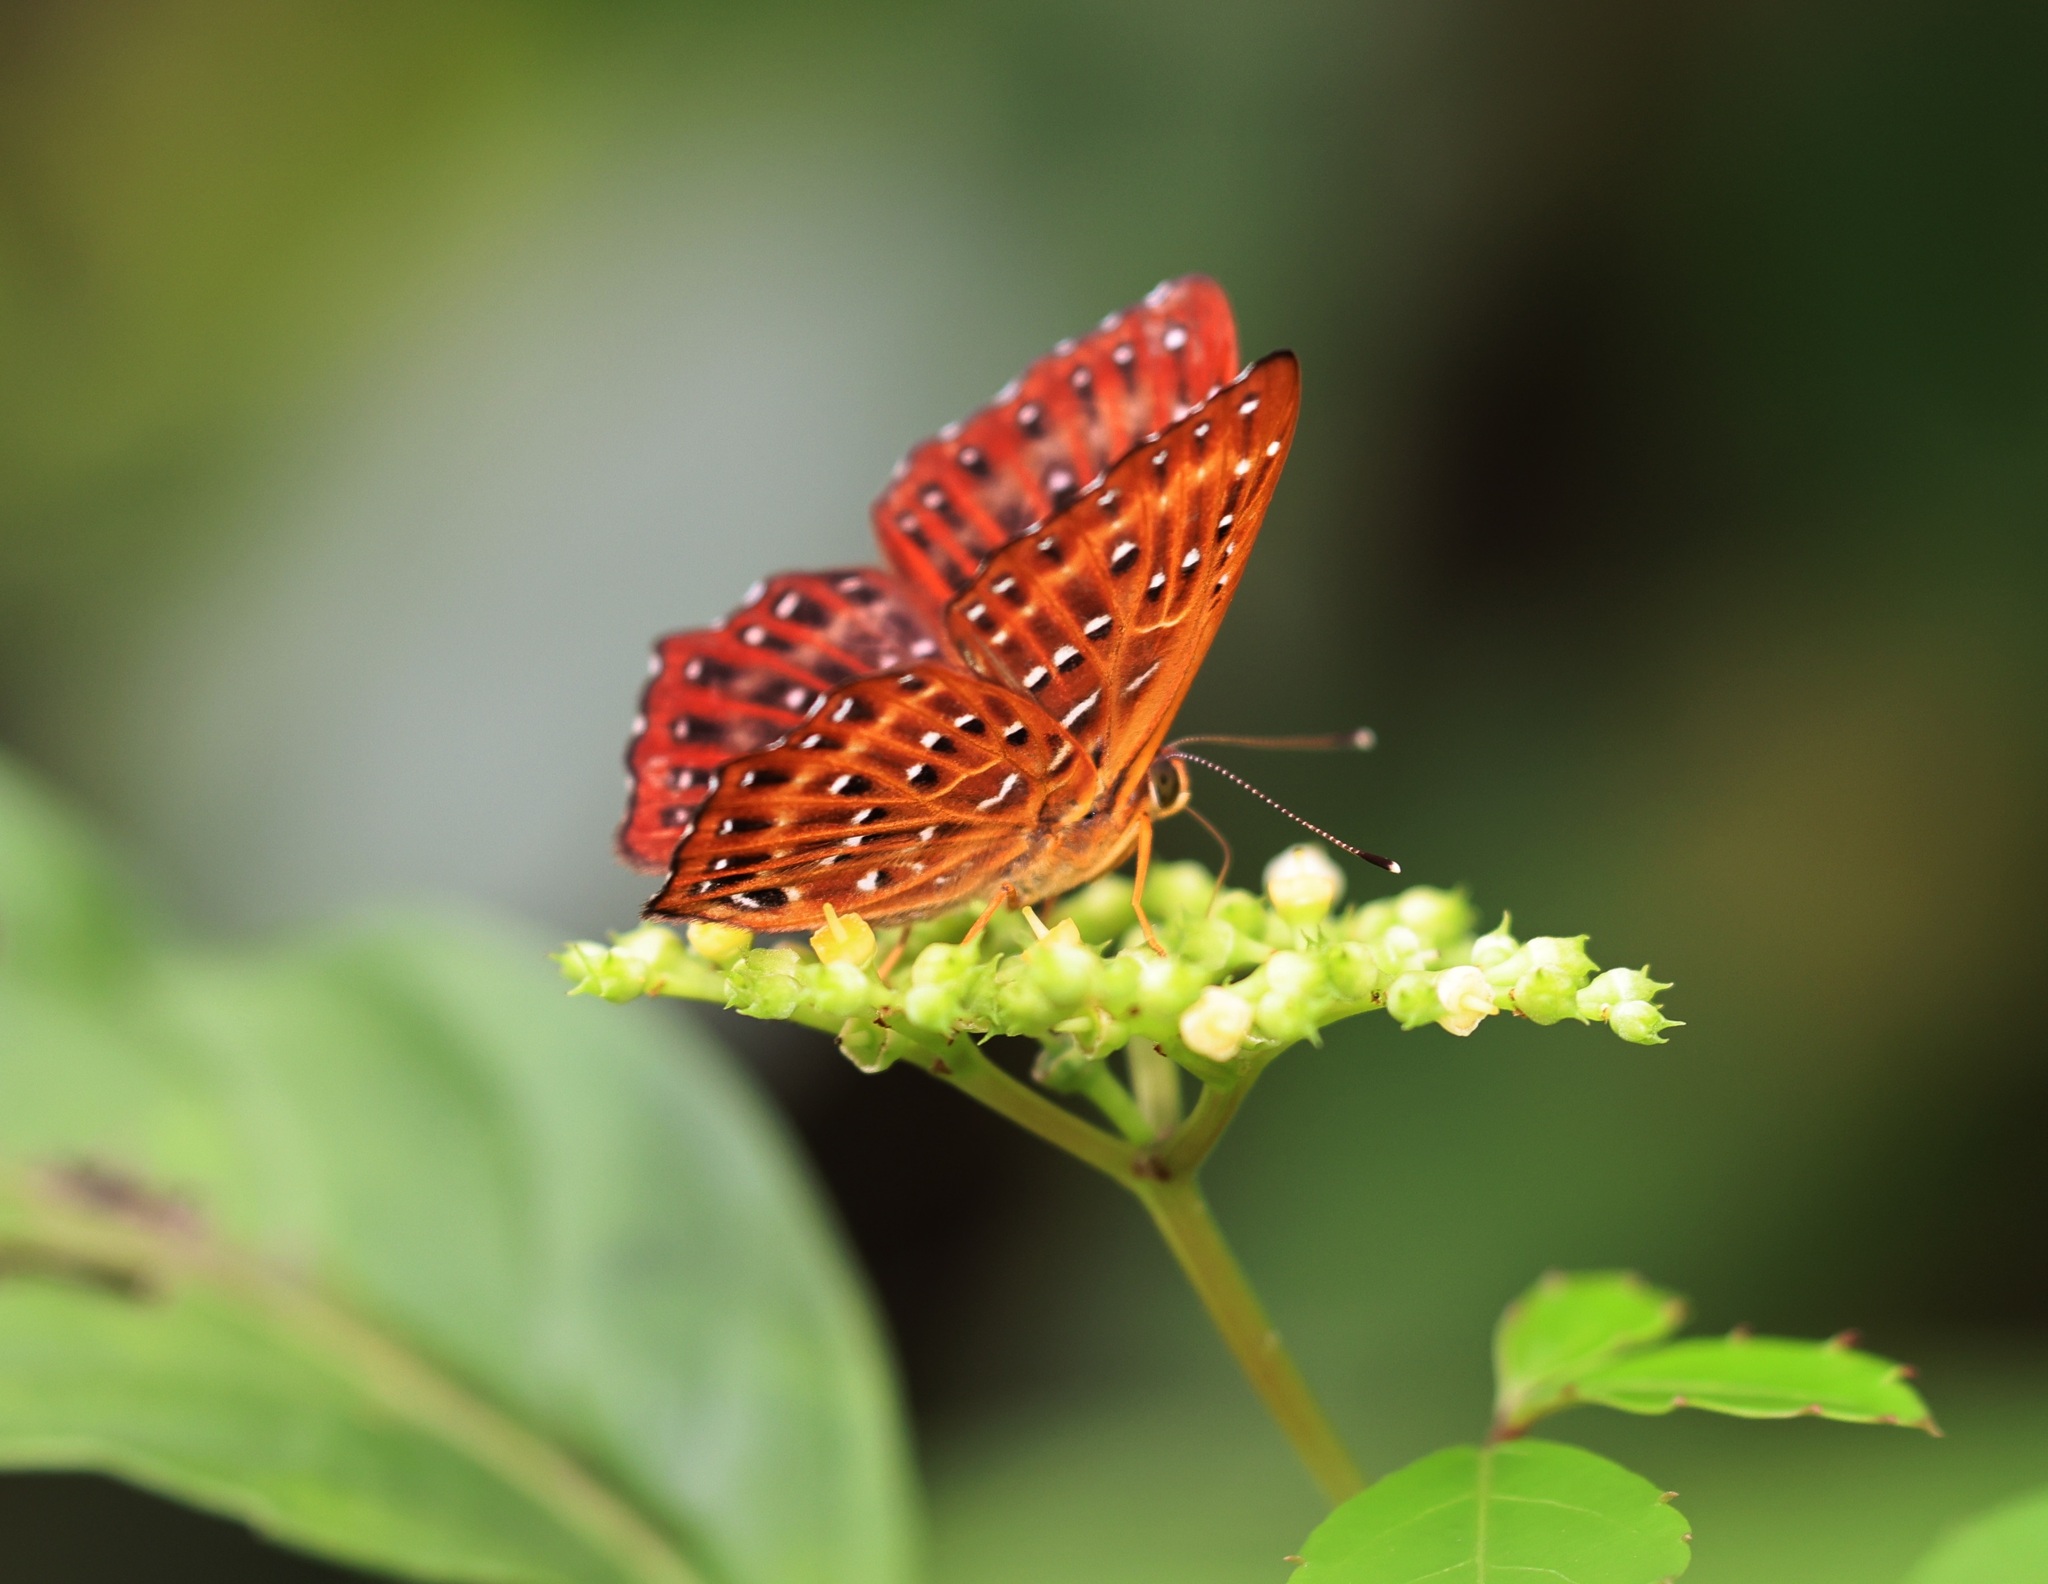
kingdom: Animalia
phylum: Arthropoda
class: Insecta
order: Lepidoptera
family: Riodinidae
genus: Zemeros
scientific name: Zemeros flegyas
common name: Punchinello
